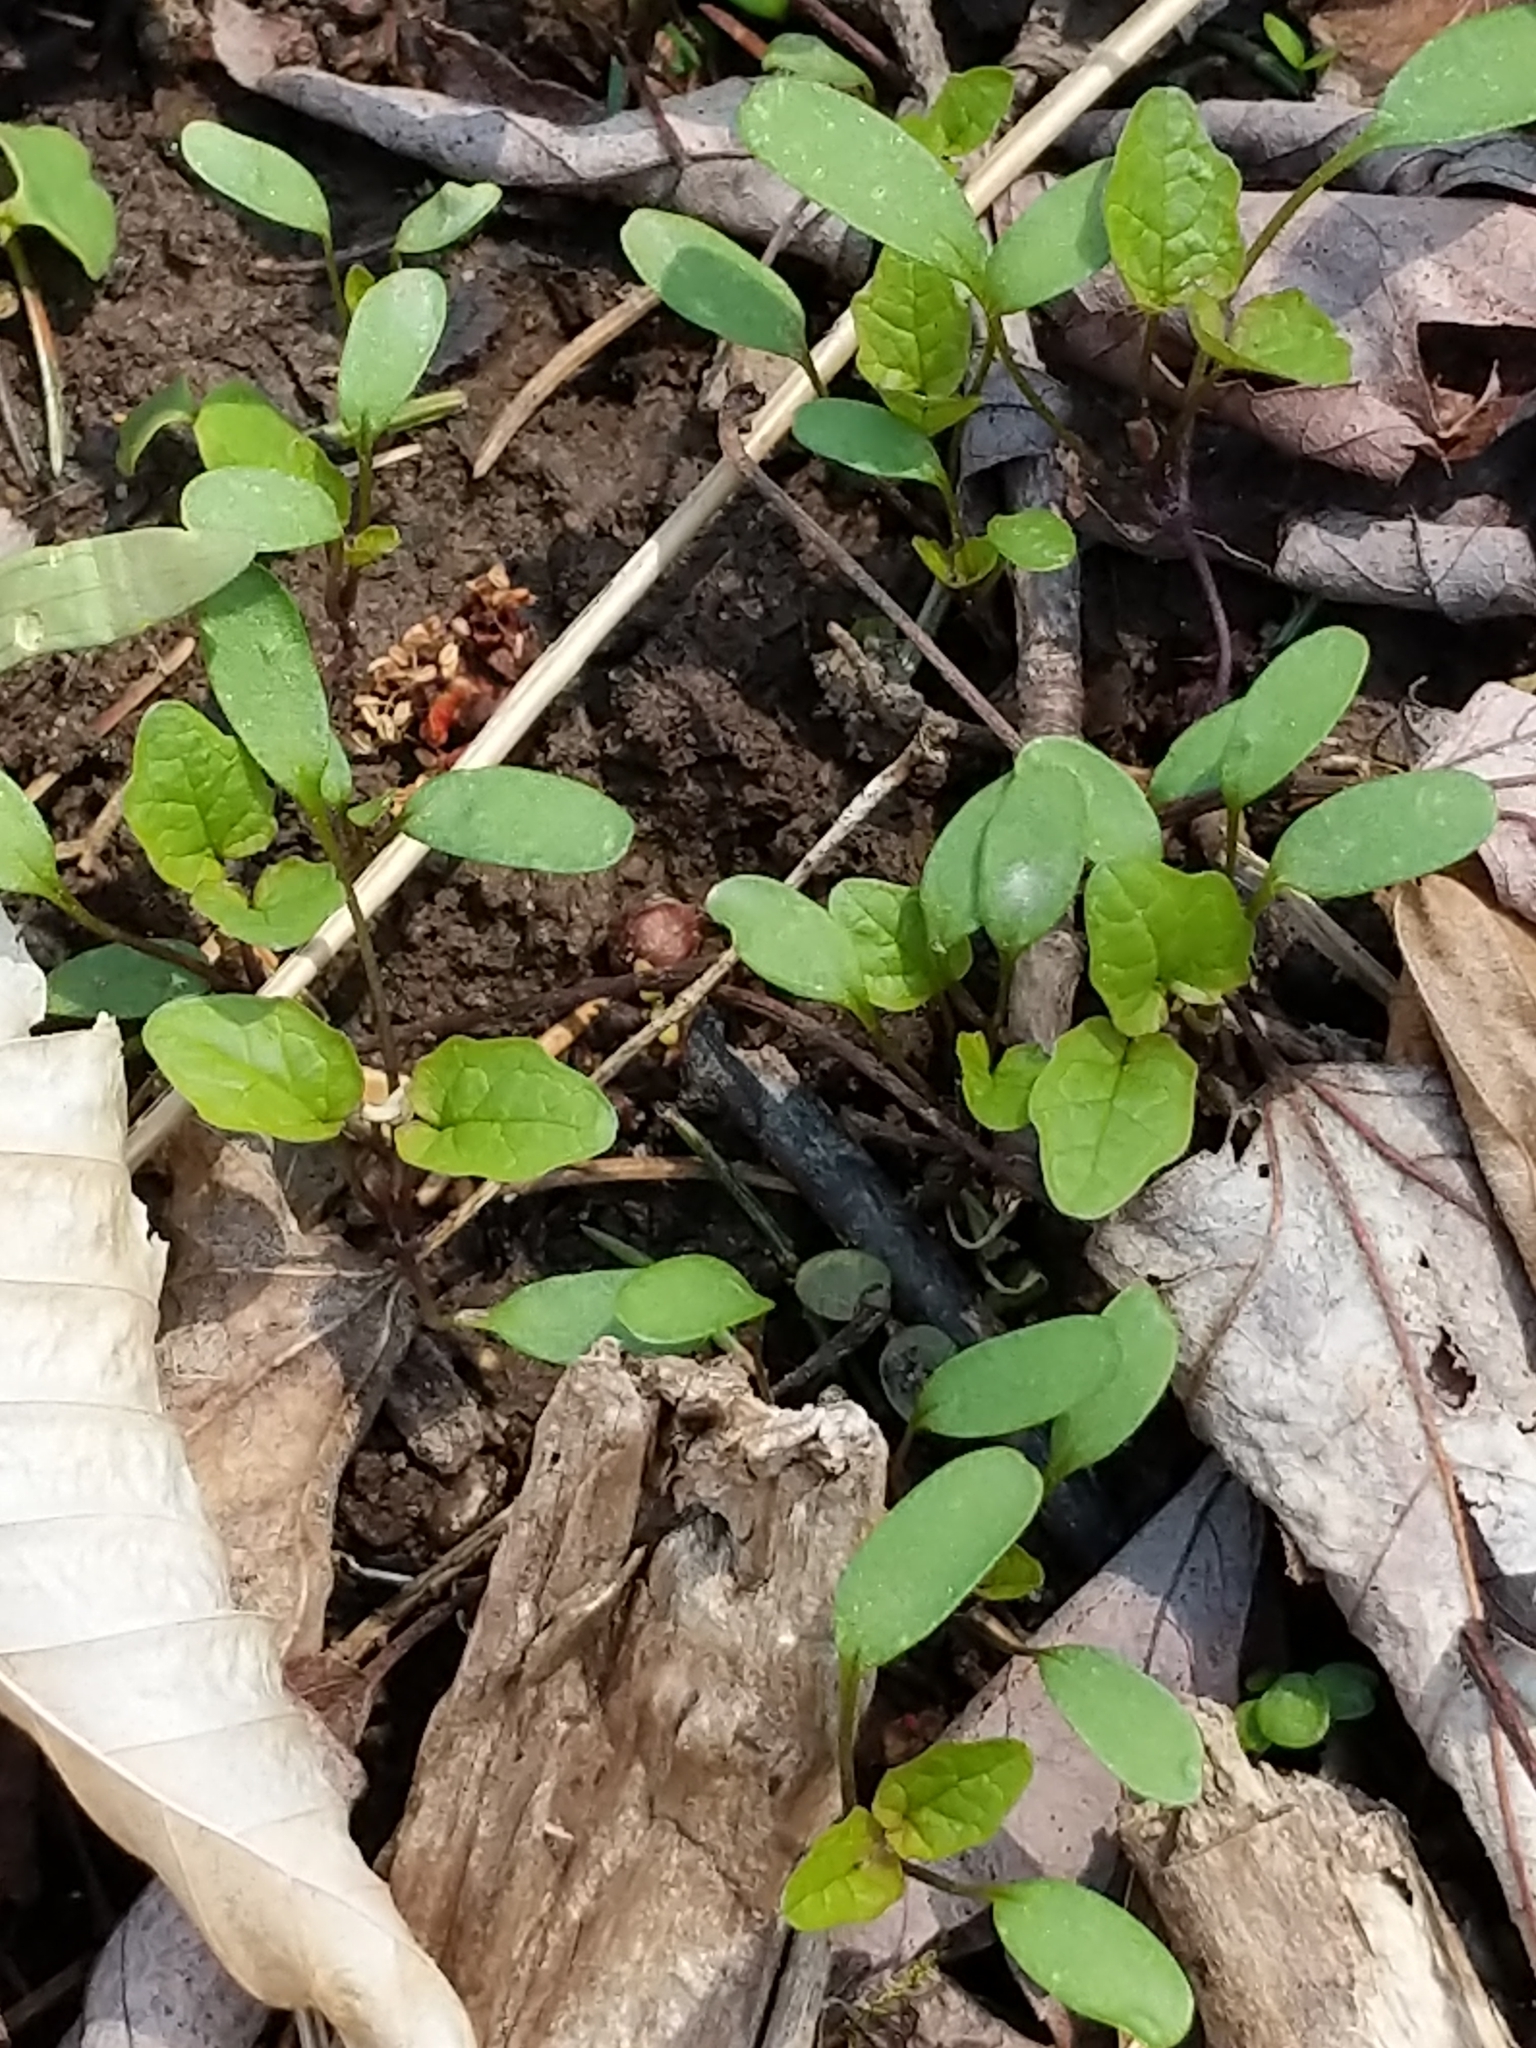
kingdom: Plantae
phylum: Tracheophyta
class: Magnoliopsida
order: Brassicales
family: Brassicaceae
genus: Alliaria
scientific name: Alliaria petiolata
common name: Garlic mustard
